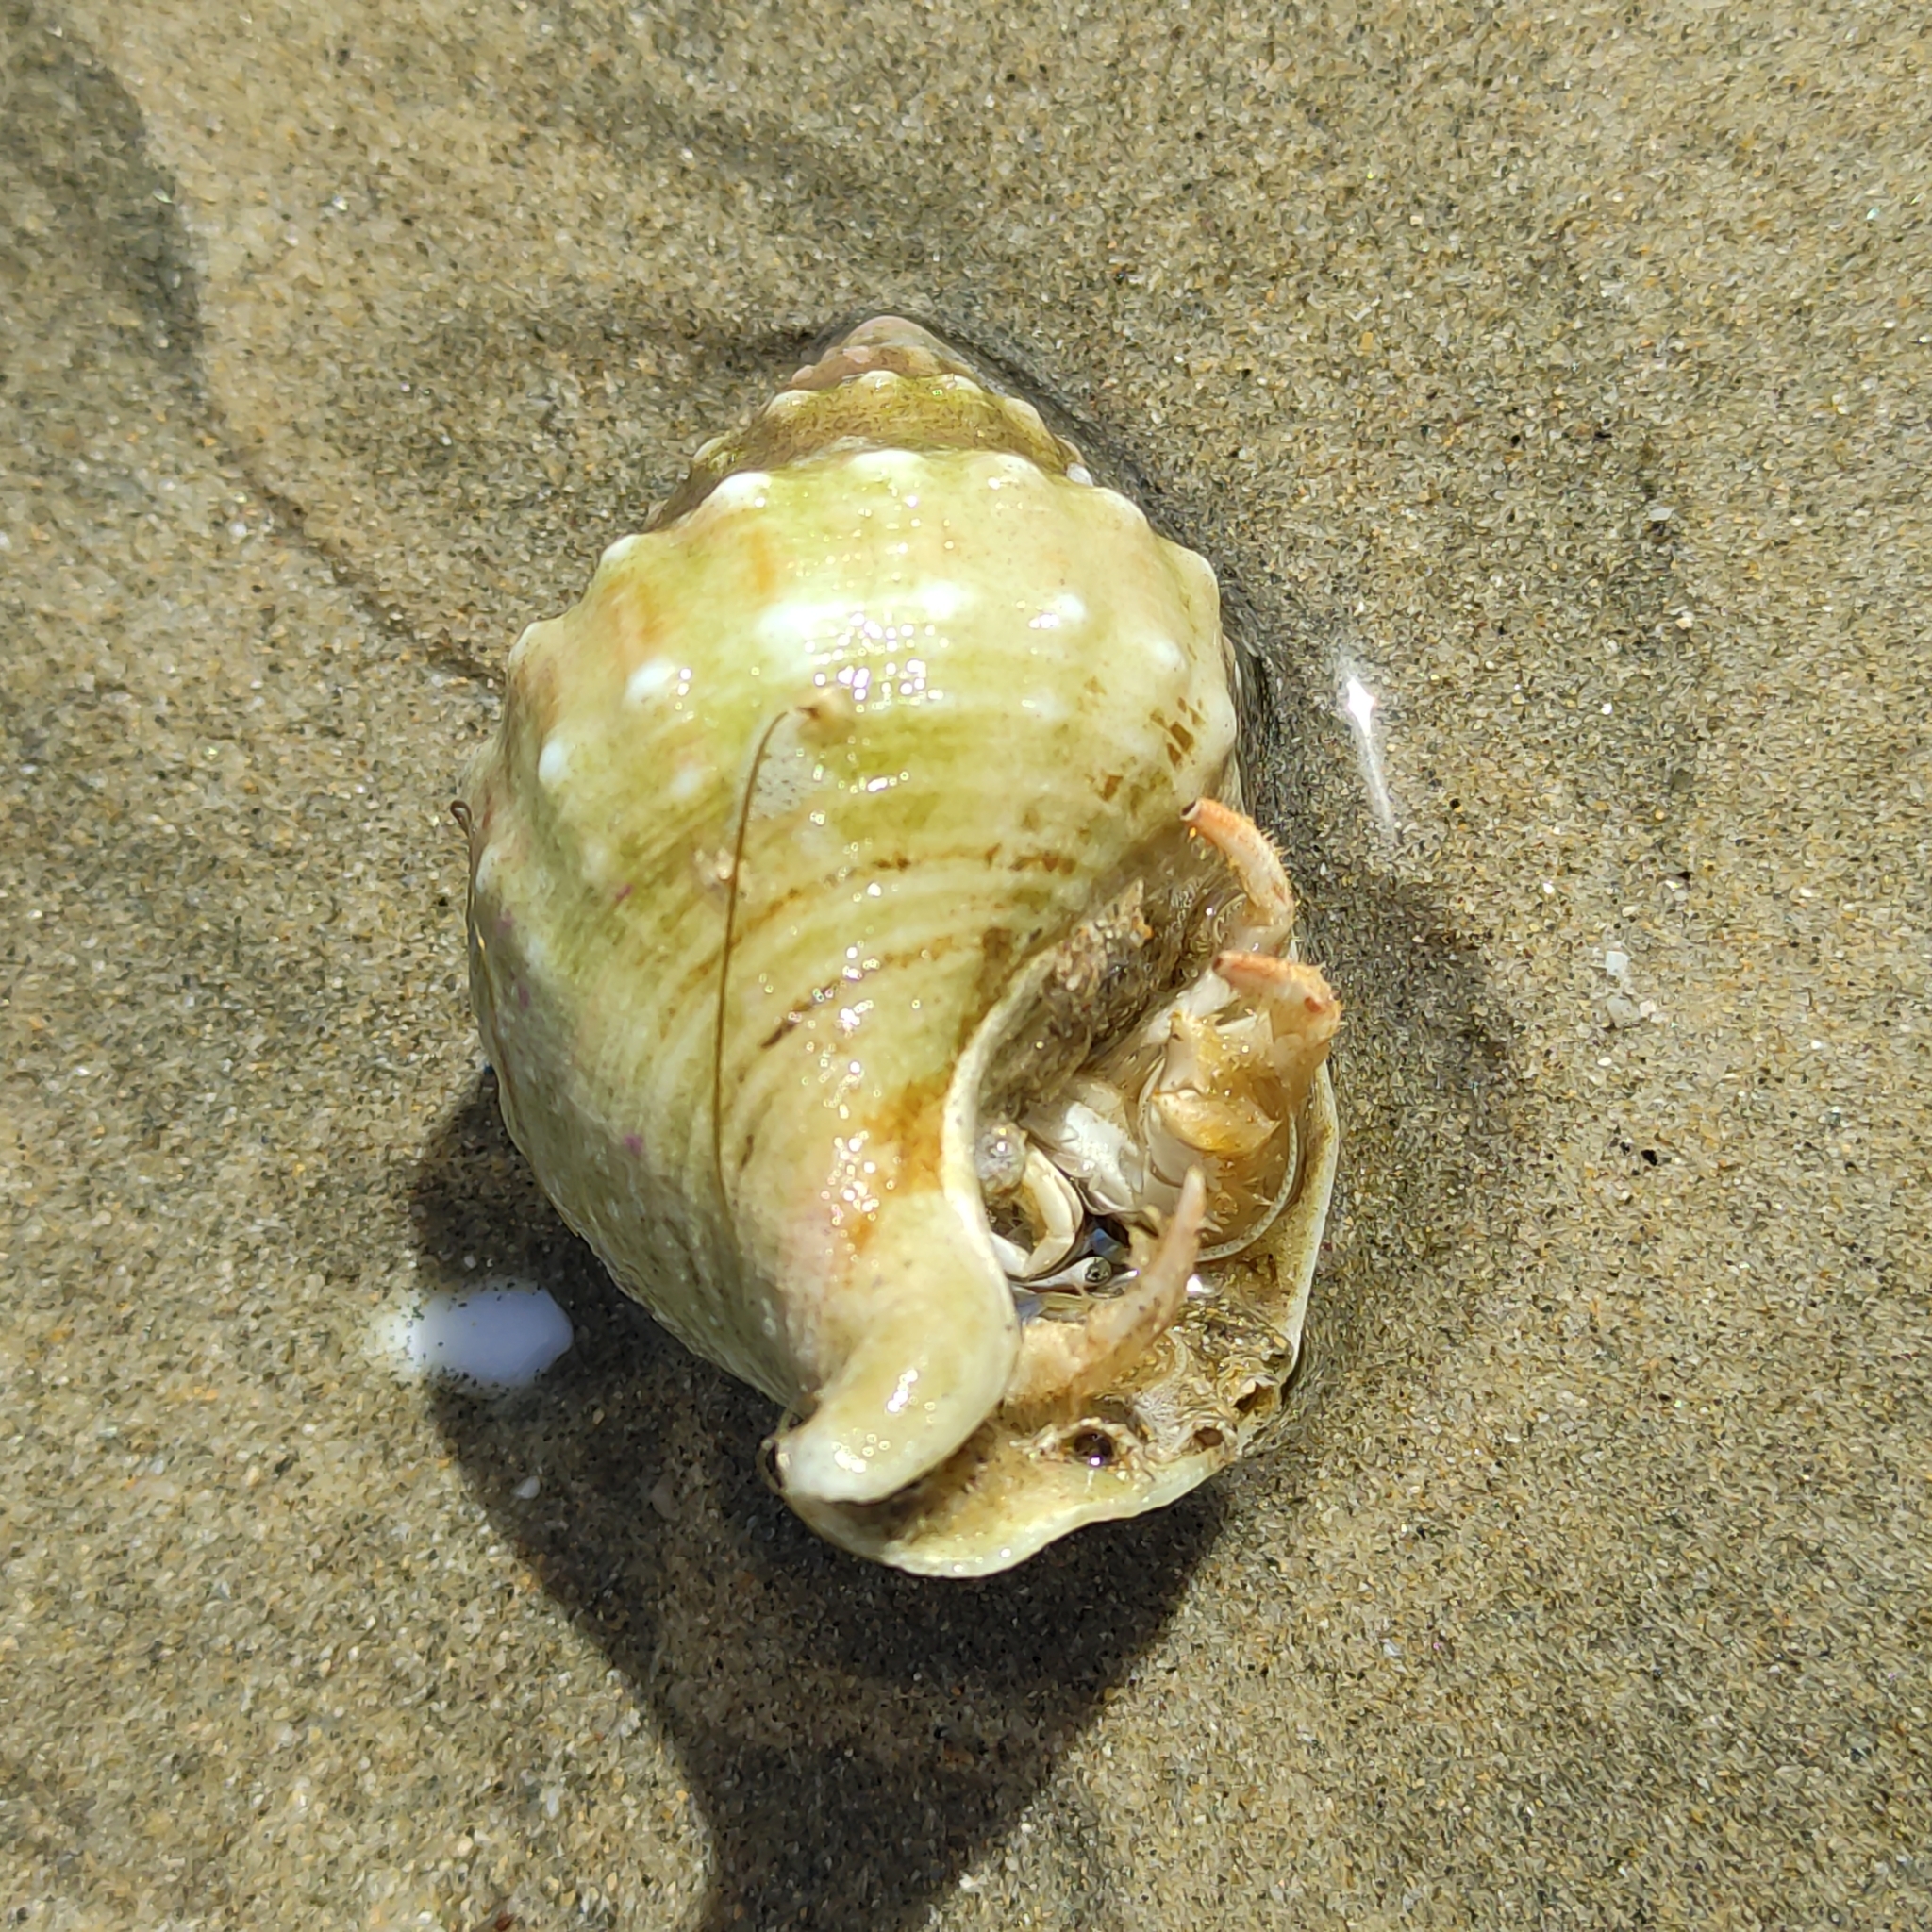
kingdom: Animalia
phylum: Mollusca
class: Gastropoda
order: Neogastropoda
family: Prosiphonidae
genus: Austrofusus
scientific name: Austrofusus glans
